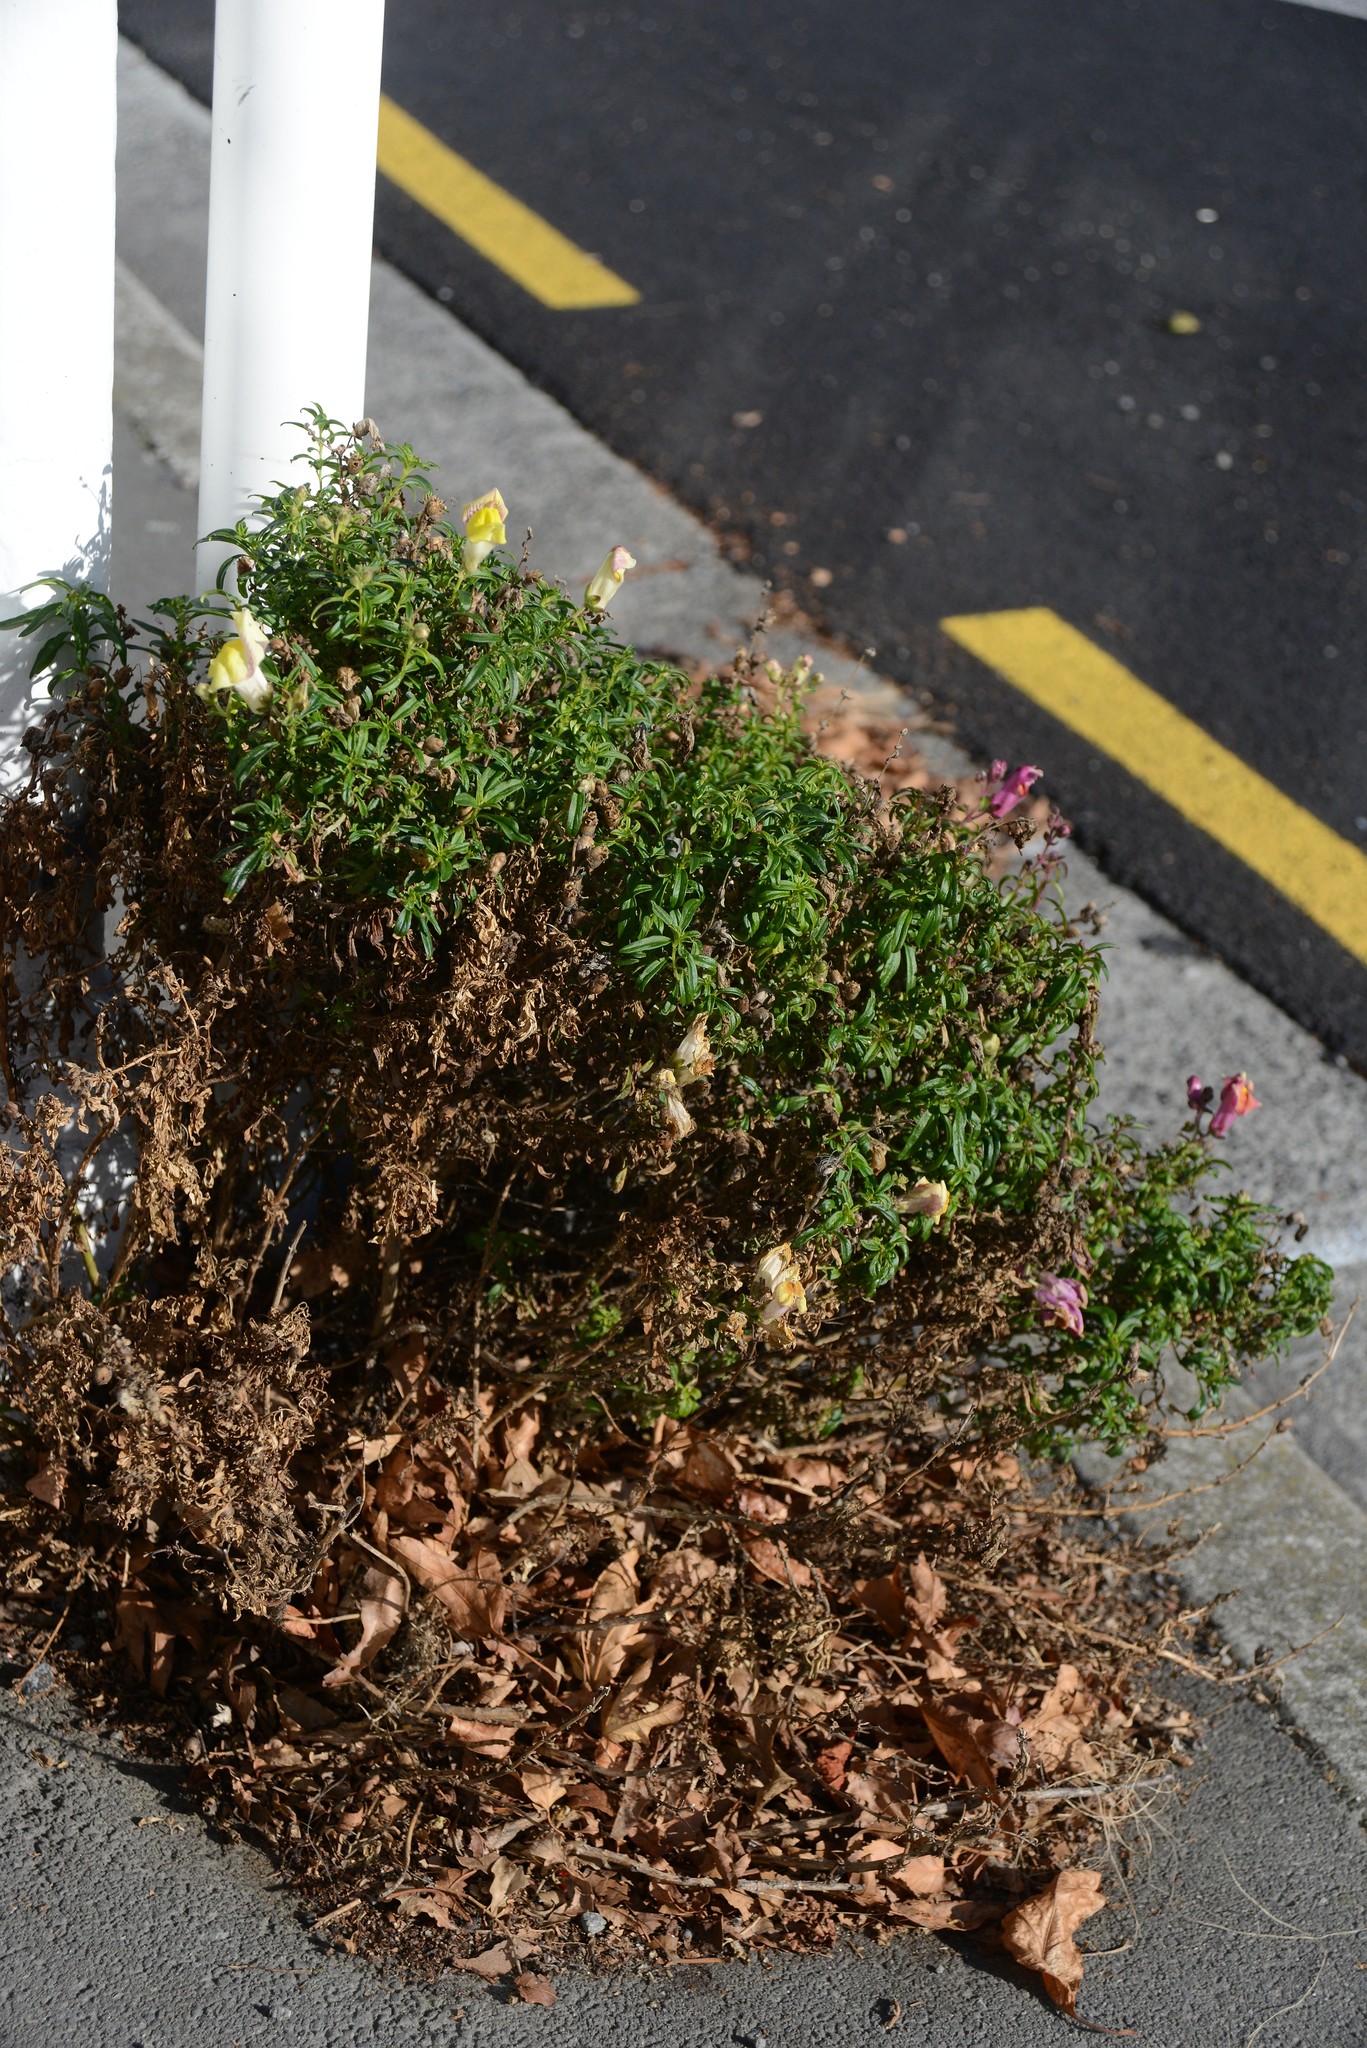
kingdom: Plantae
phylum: Tracheophyta
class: Magnoliopsida
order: Lamiales
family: Plantaginaceae
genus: Antirrhinum
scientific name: Antirrhinum majus
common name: Snapdragon
